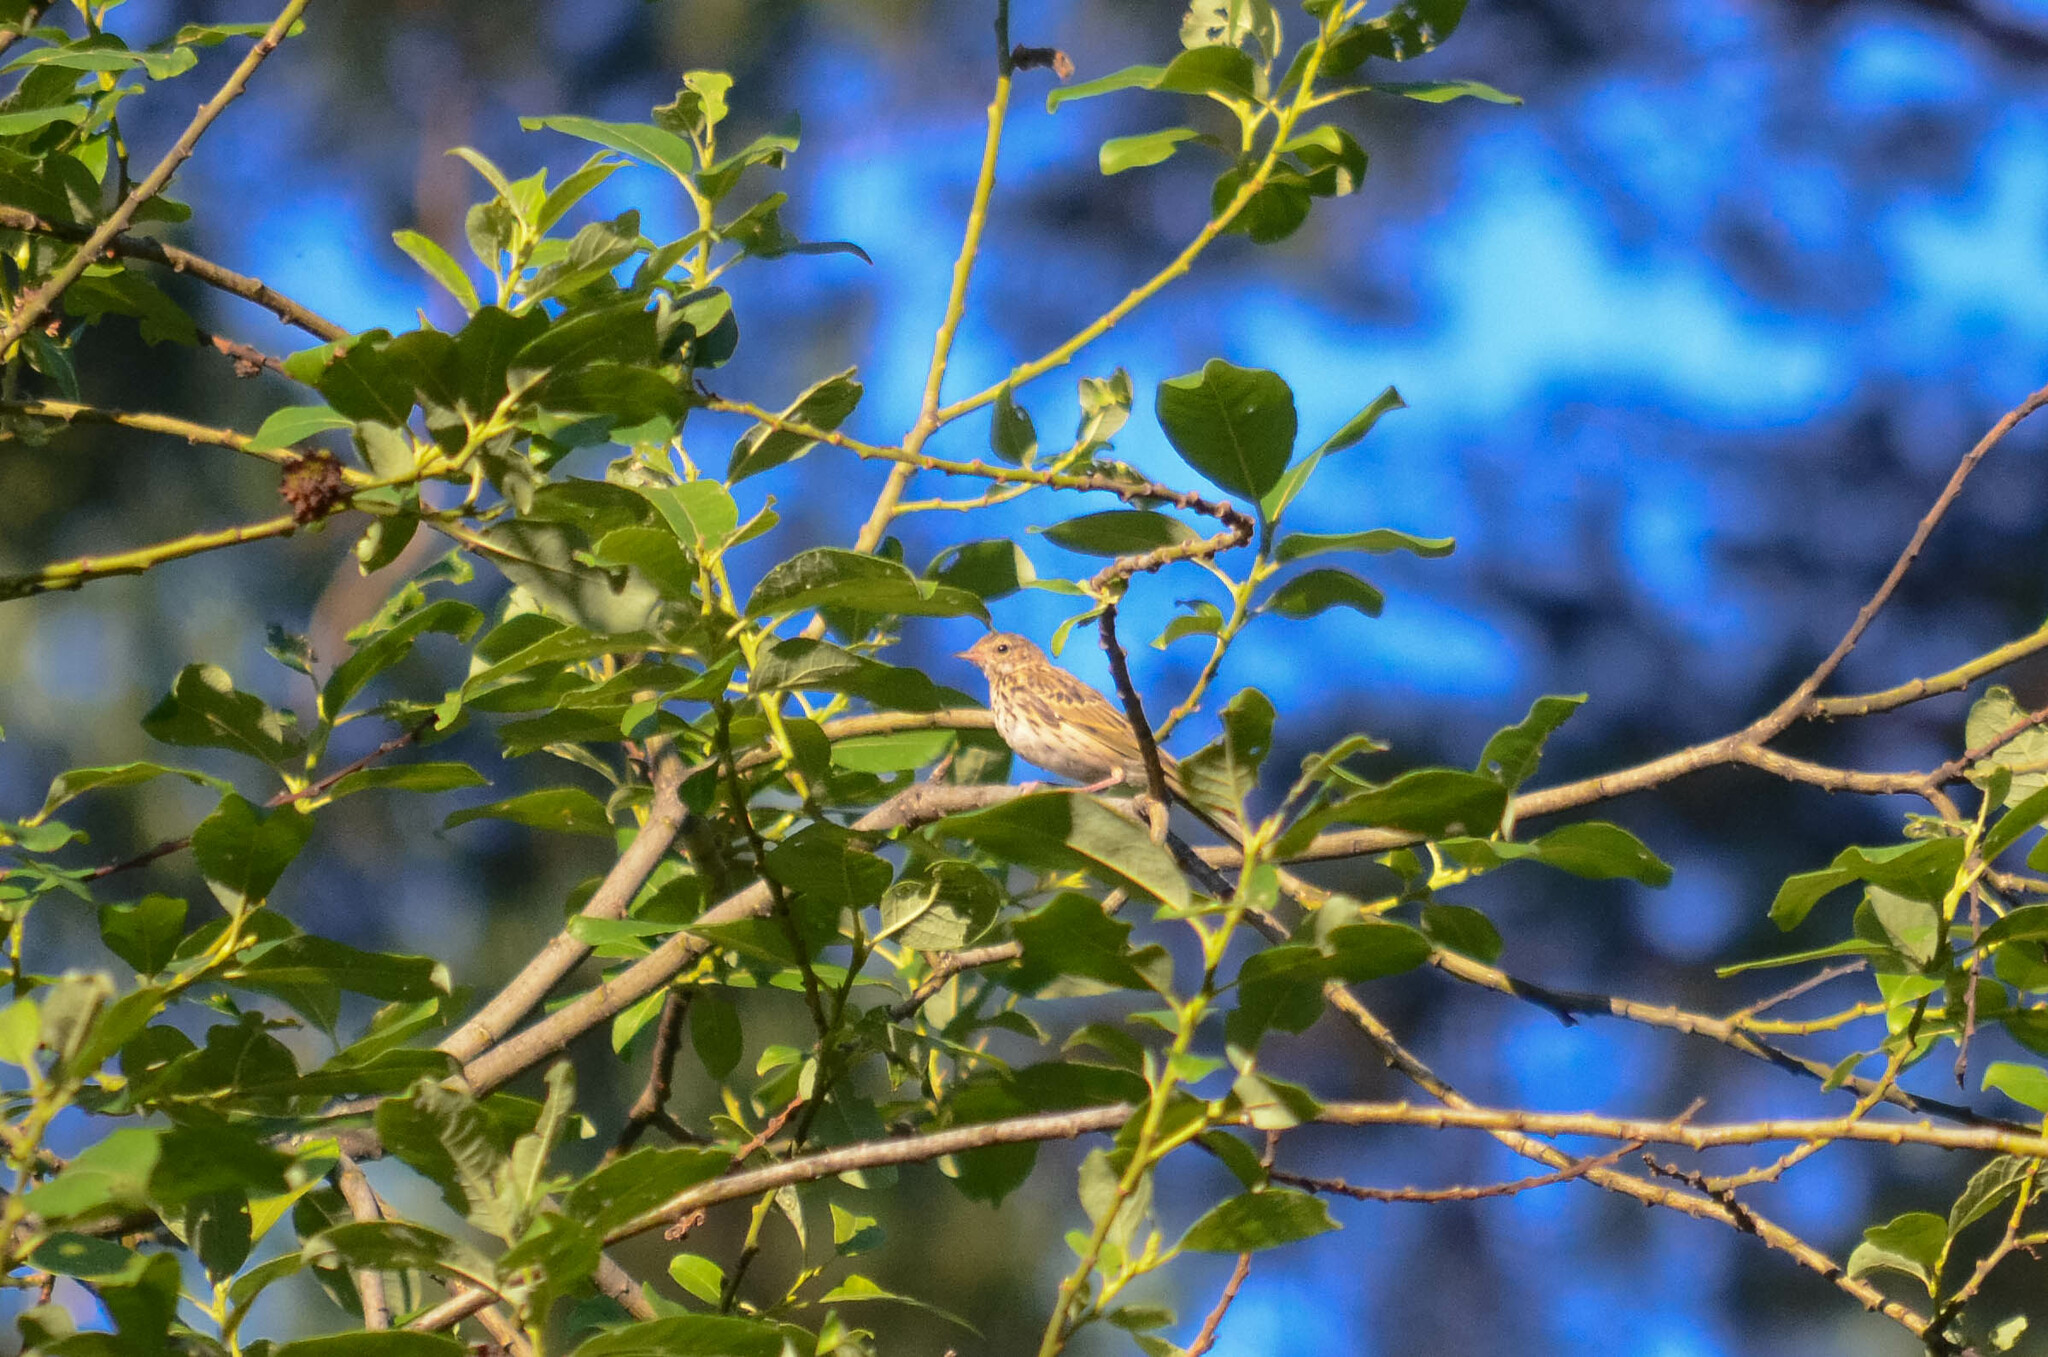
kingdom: Animalia
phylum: Chordata
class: Aves
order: Passeriformes
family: Motacillidae
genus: Anthus
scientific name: Anthus trivialis
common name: Tree pipit
